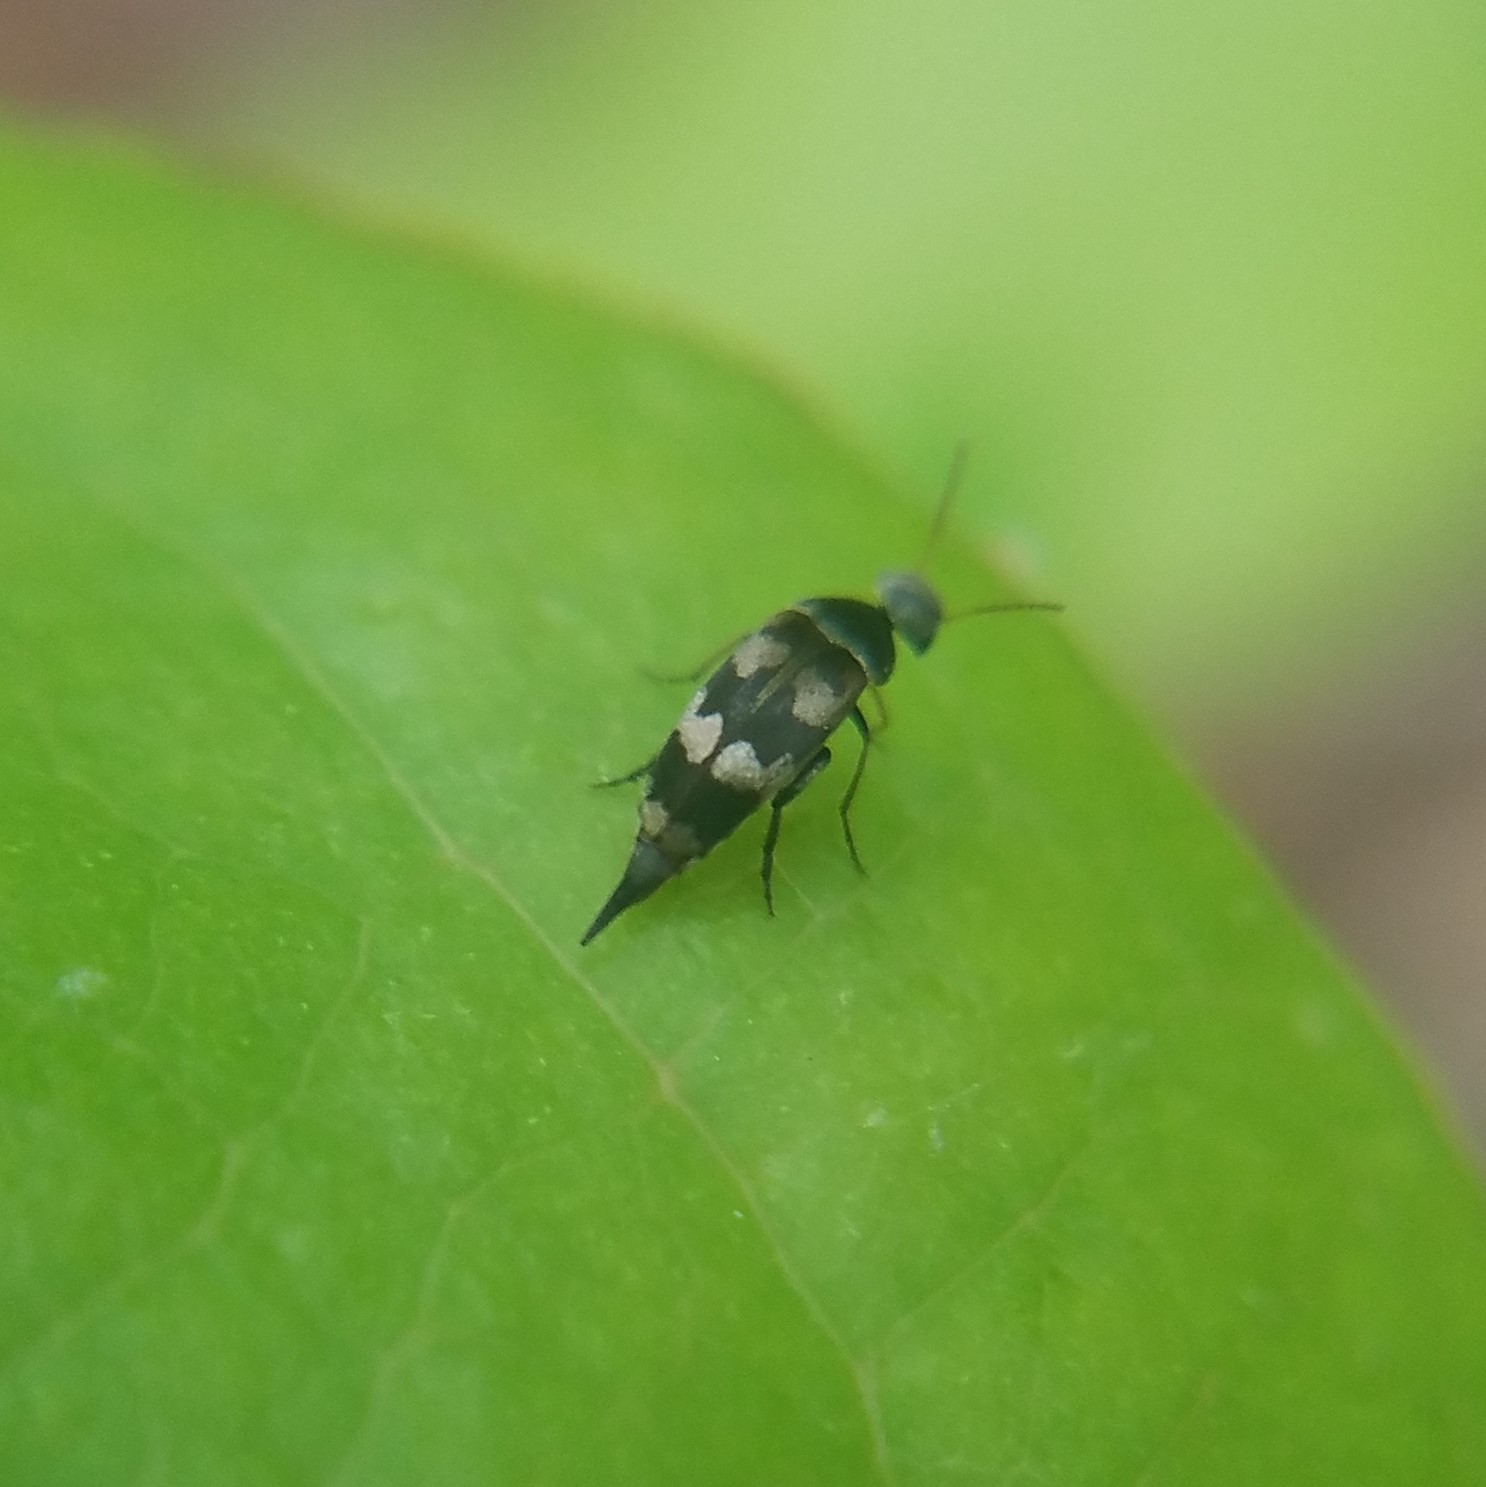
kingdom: Animalia
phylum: Arthropoda
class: Insecta
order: Coleoptera
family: Mordellidae
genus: Falsomordellistena
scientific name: Falsomordellistena pubescens
